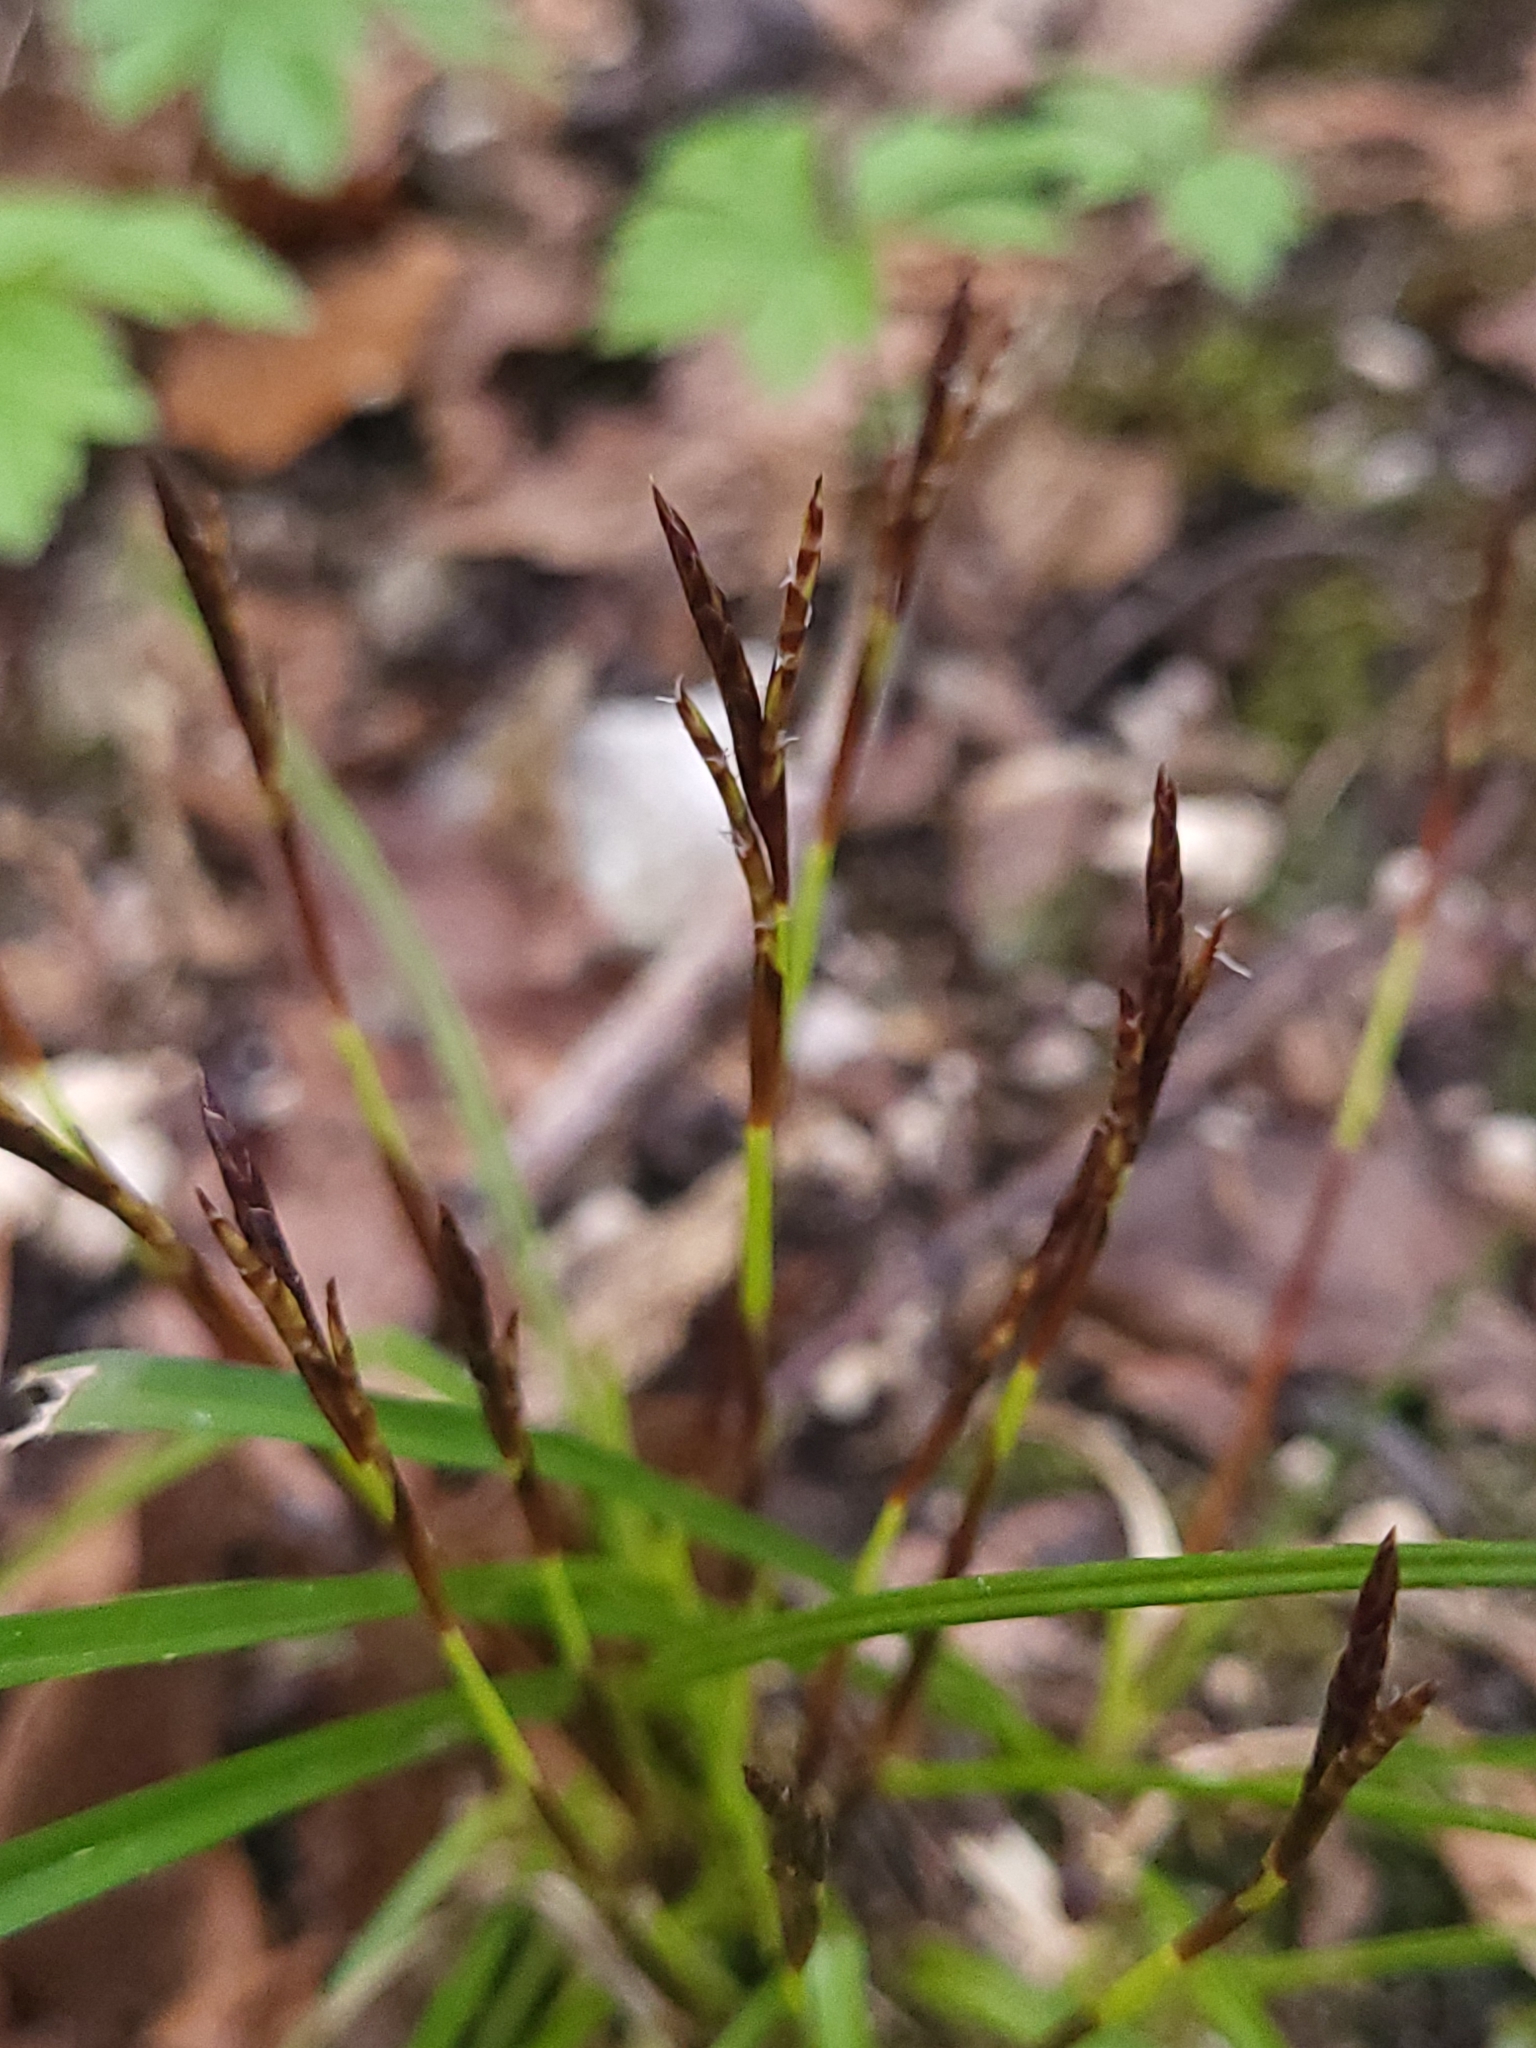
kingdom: Plantae
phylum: Tracheophyta
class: Liliopsida
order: Poales
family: Cyperaceae
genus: Carex
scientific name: Carex digitata
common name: Fingered sedge
